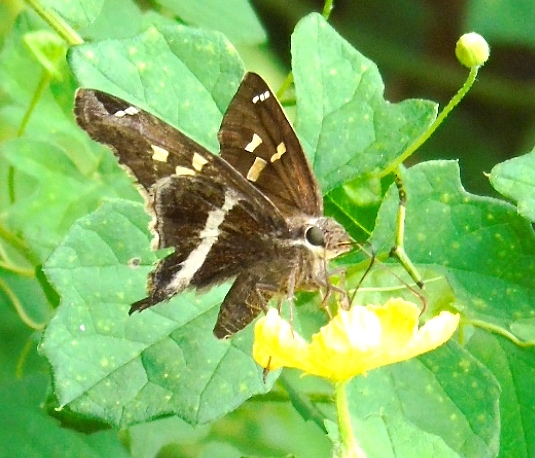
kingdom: Animalia
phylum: Arthropoda
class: Insecta
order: Lepidoptera
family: Hesperiidae
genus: Chioides
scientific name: Chioides catillus
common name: Silverbanded skipper
